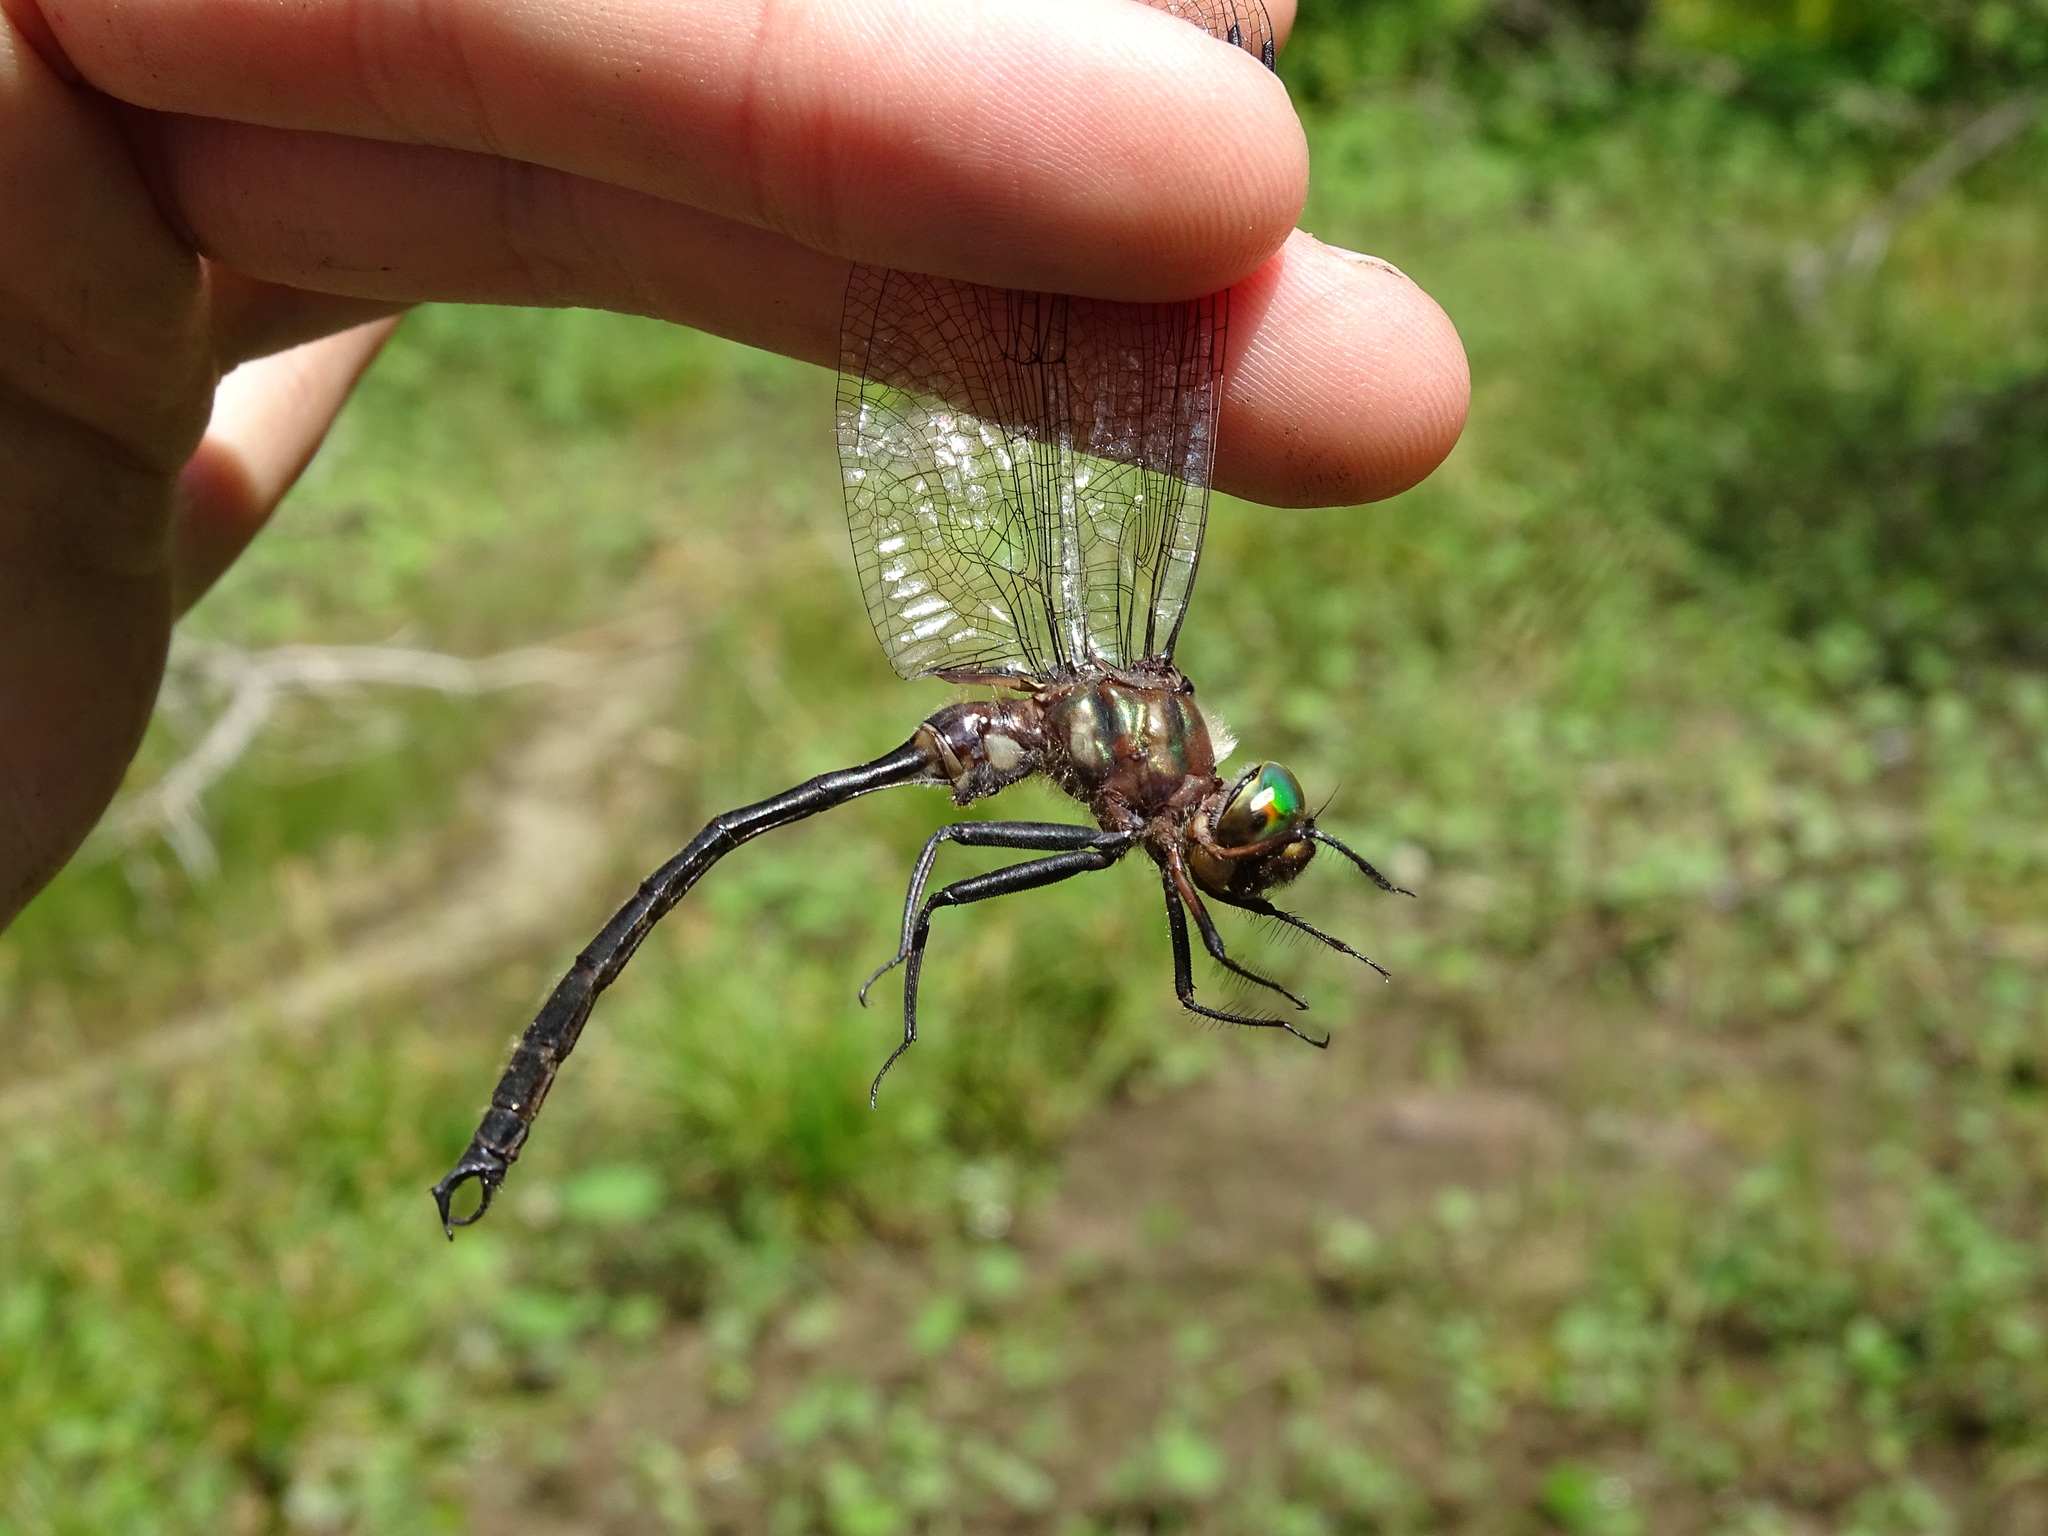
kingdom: Animalia
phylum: Arthropoda
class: Insecta
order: Odonata
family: Corduliidae
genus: Somatochlora
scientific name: Somatochlora tenebrosa
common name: Clamp-tipped emerald
